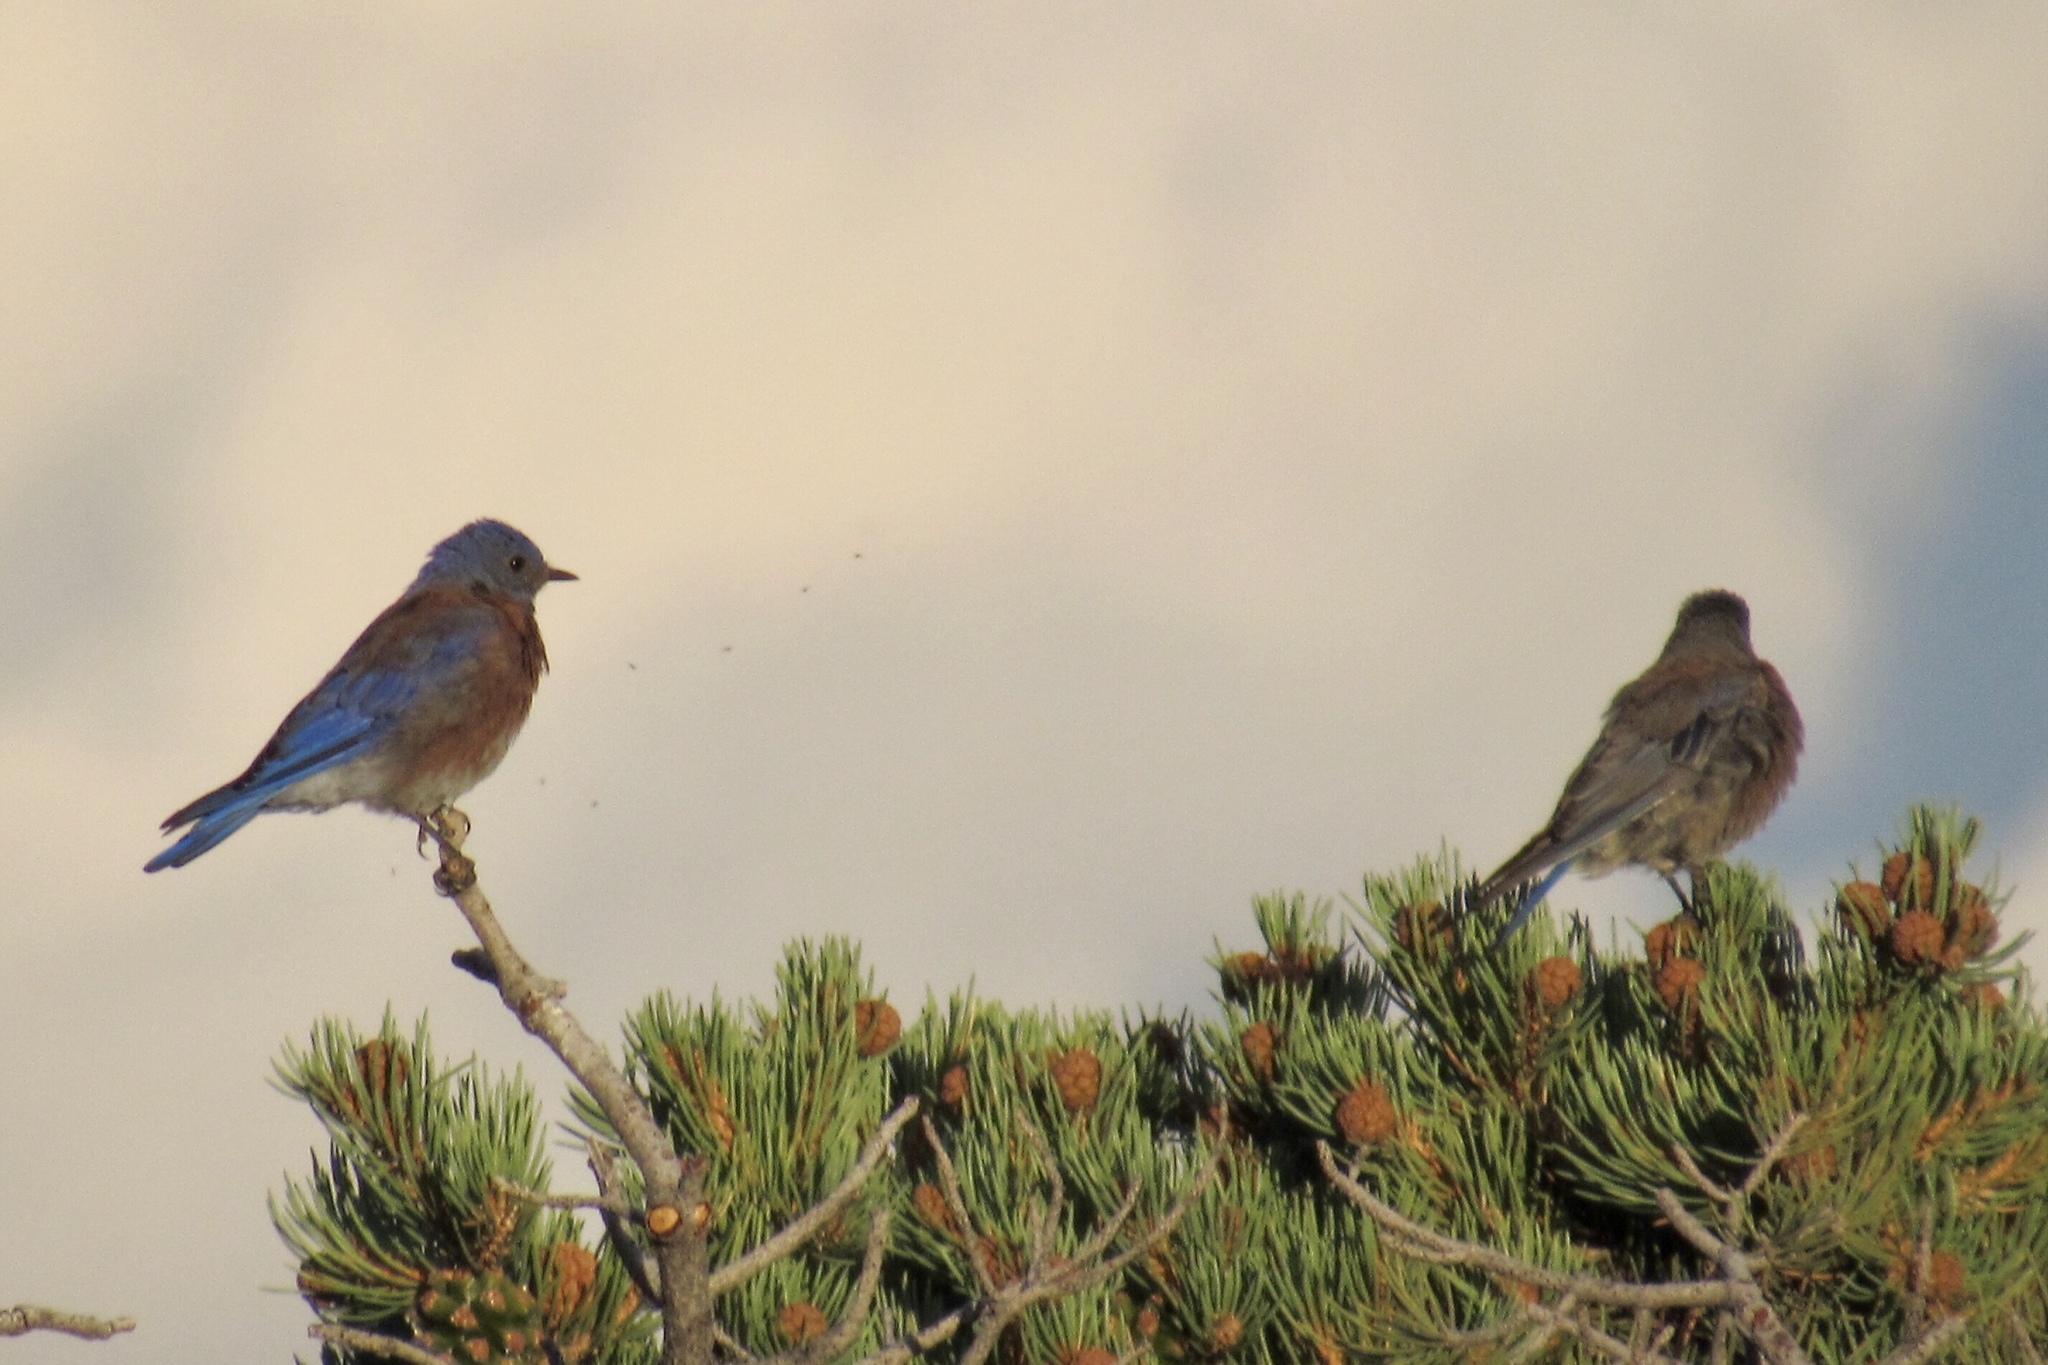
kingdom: Animalia
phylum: Chordata
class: Aves
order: Passeriformes
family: Turdidae
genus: Sialia
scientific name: Sialia mexicana
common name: Western bluebird
